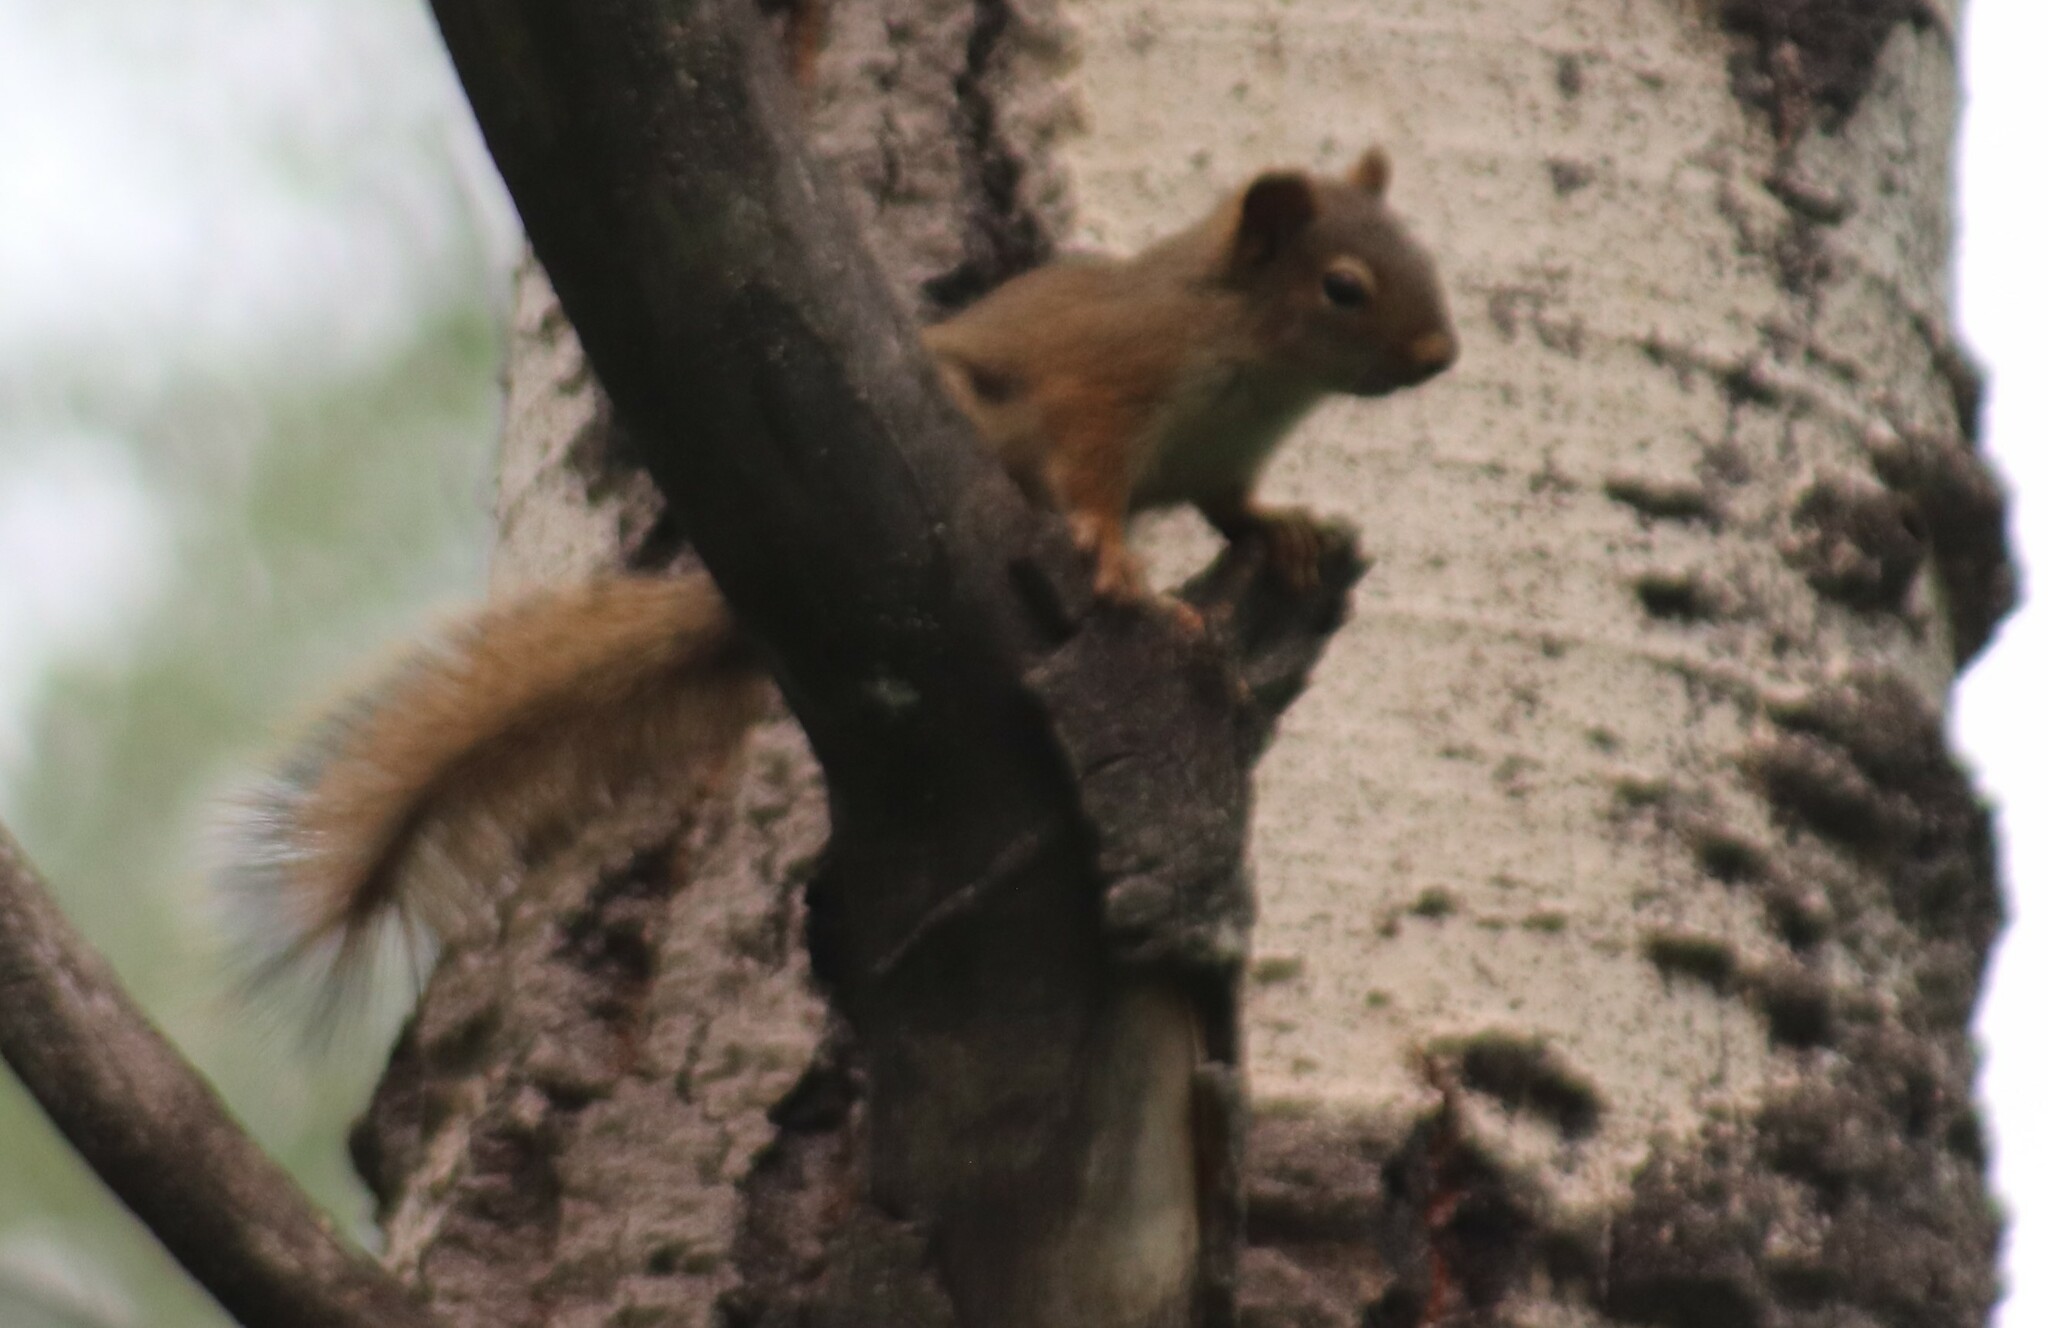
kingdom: Animalia
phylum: Chordata
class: Mammalia
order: Rodentia
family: Sciuridae
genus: Tamiasciurus
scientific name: Tamiasciurus hudsonicus
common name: Red squirrel
